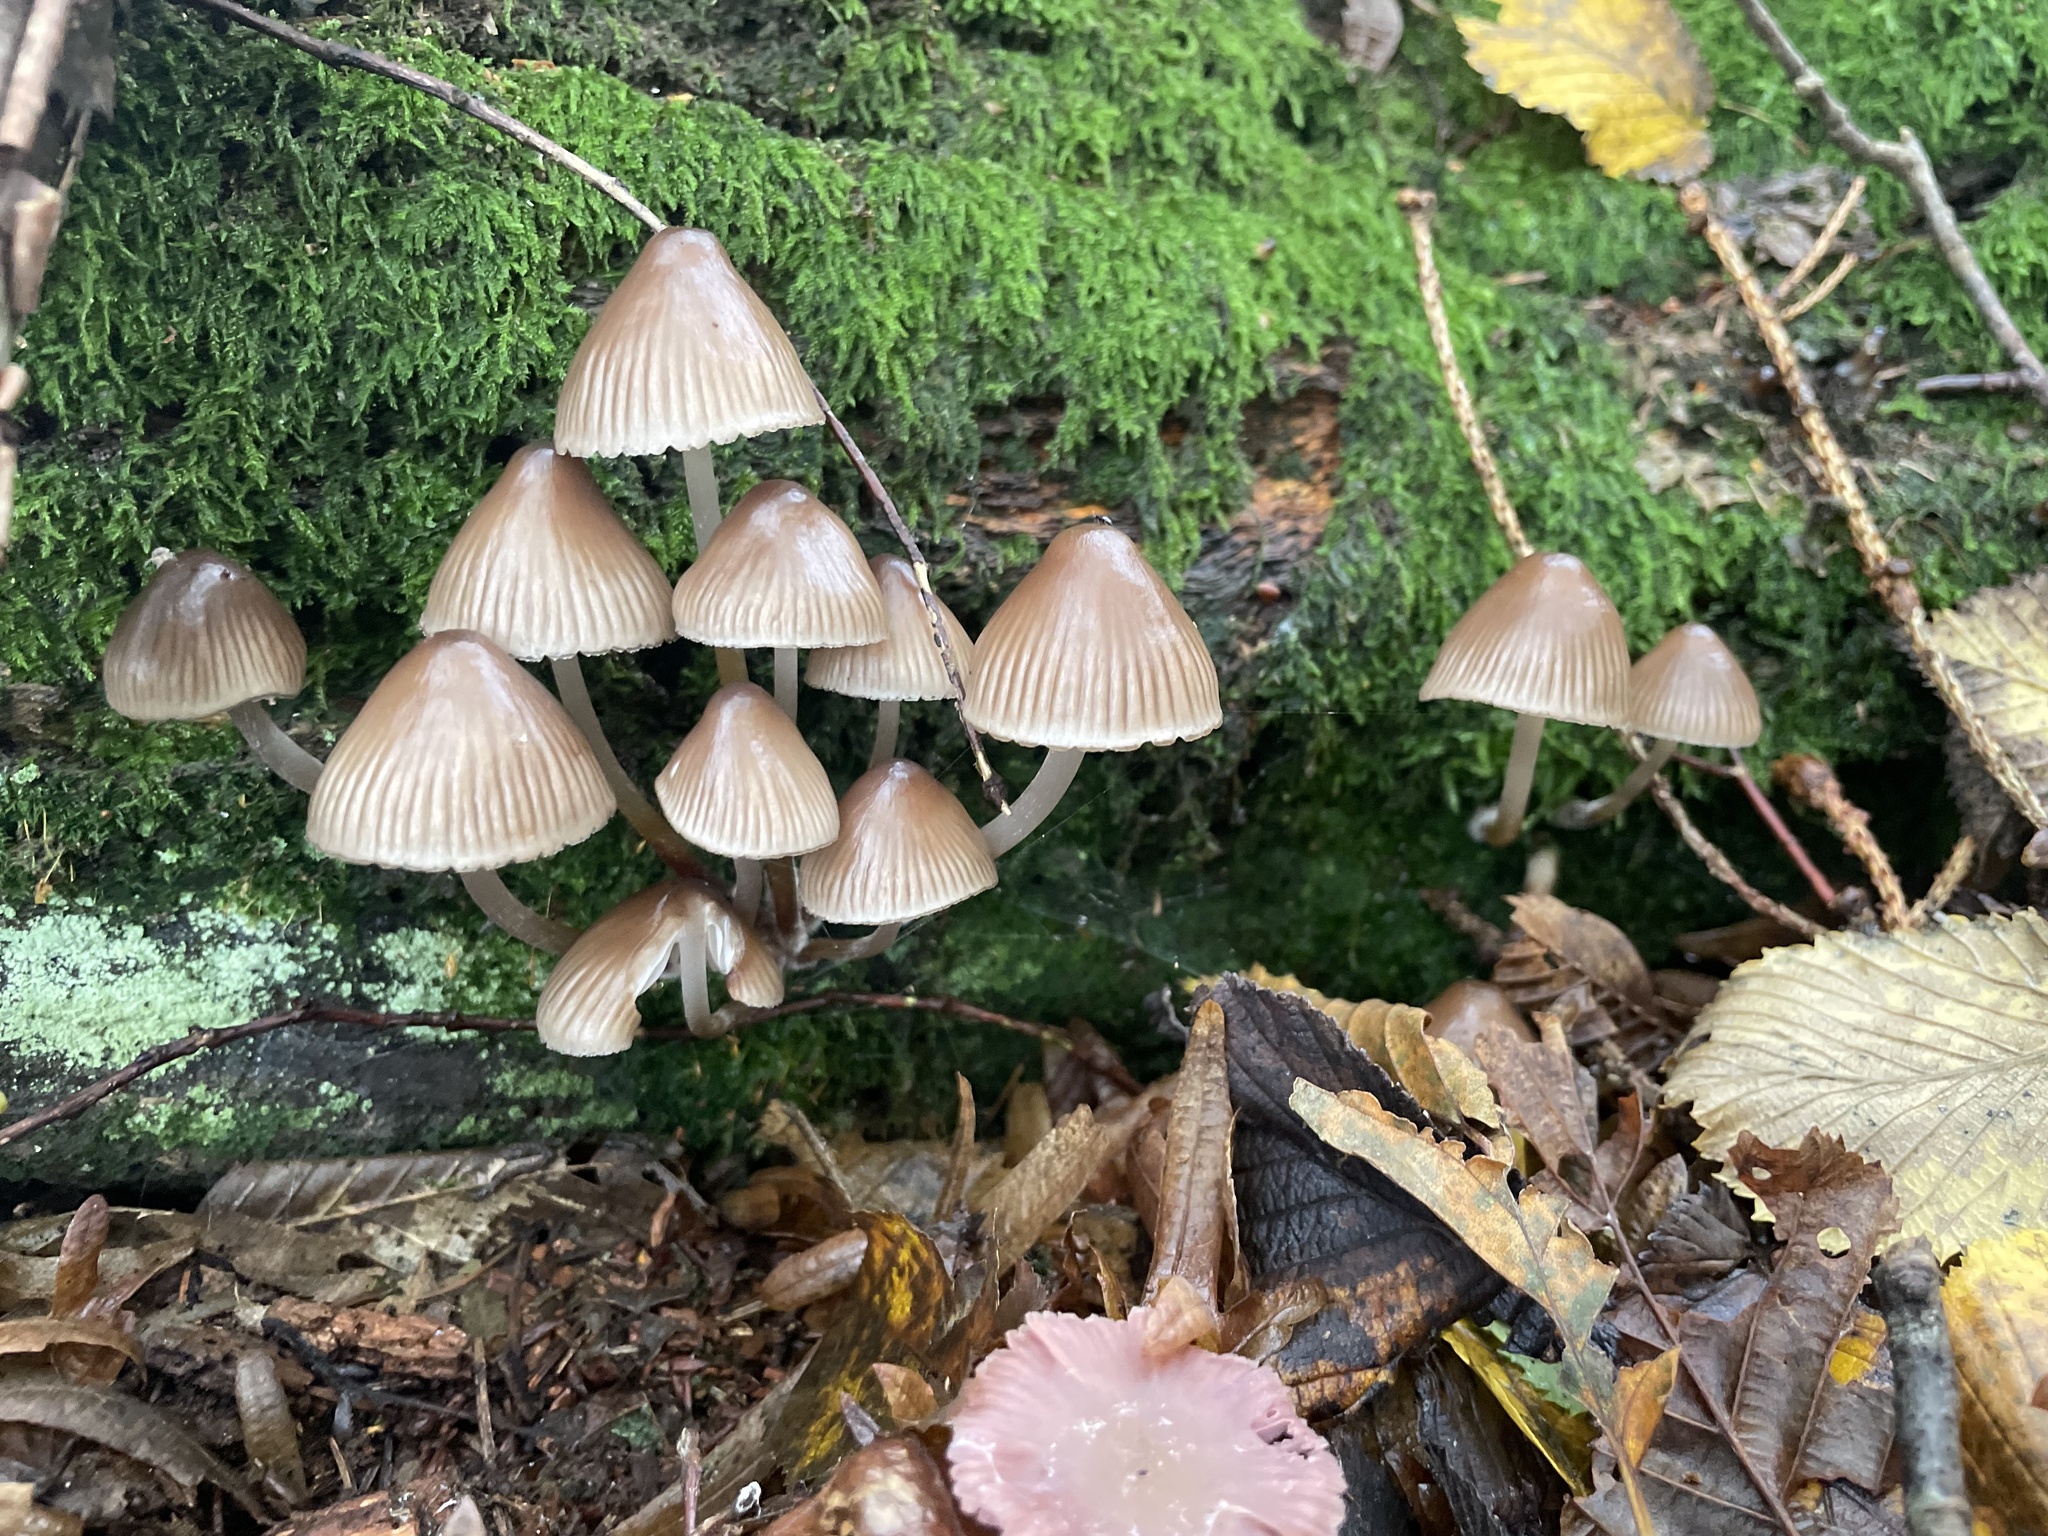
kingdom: Fungi
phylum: Basidiomycota
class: Agaricomycetes
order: Agaricales
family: Mycenaceae
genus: Mycena
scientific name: Mycena inclinata
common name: Clustered bonnet
